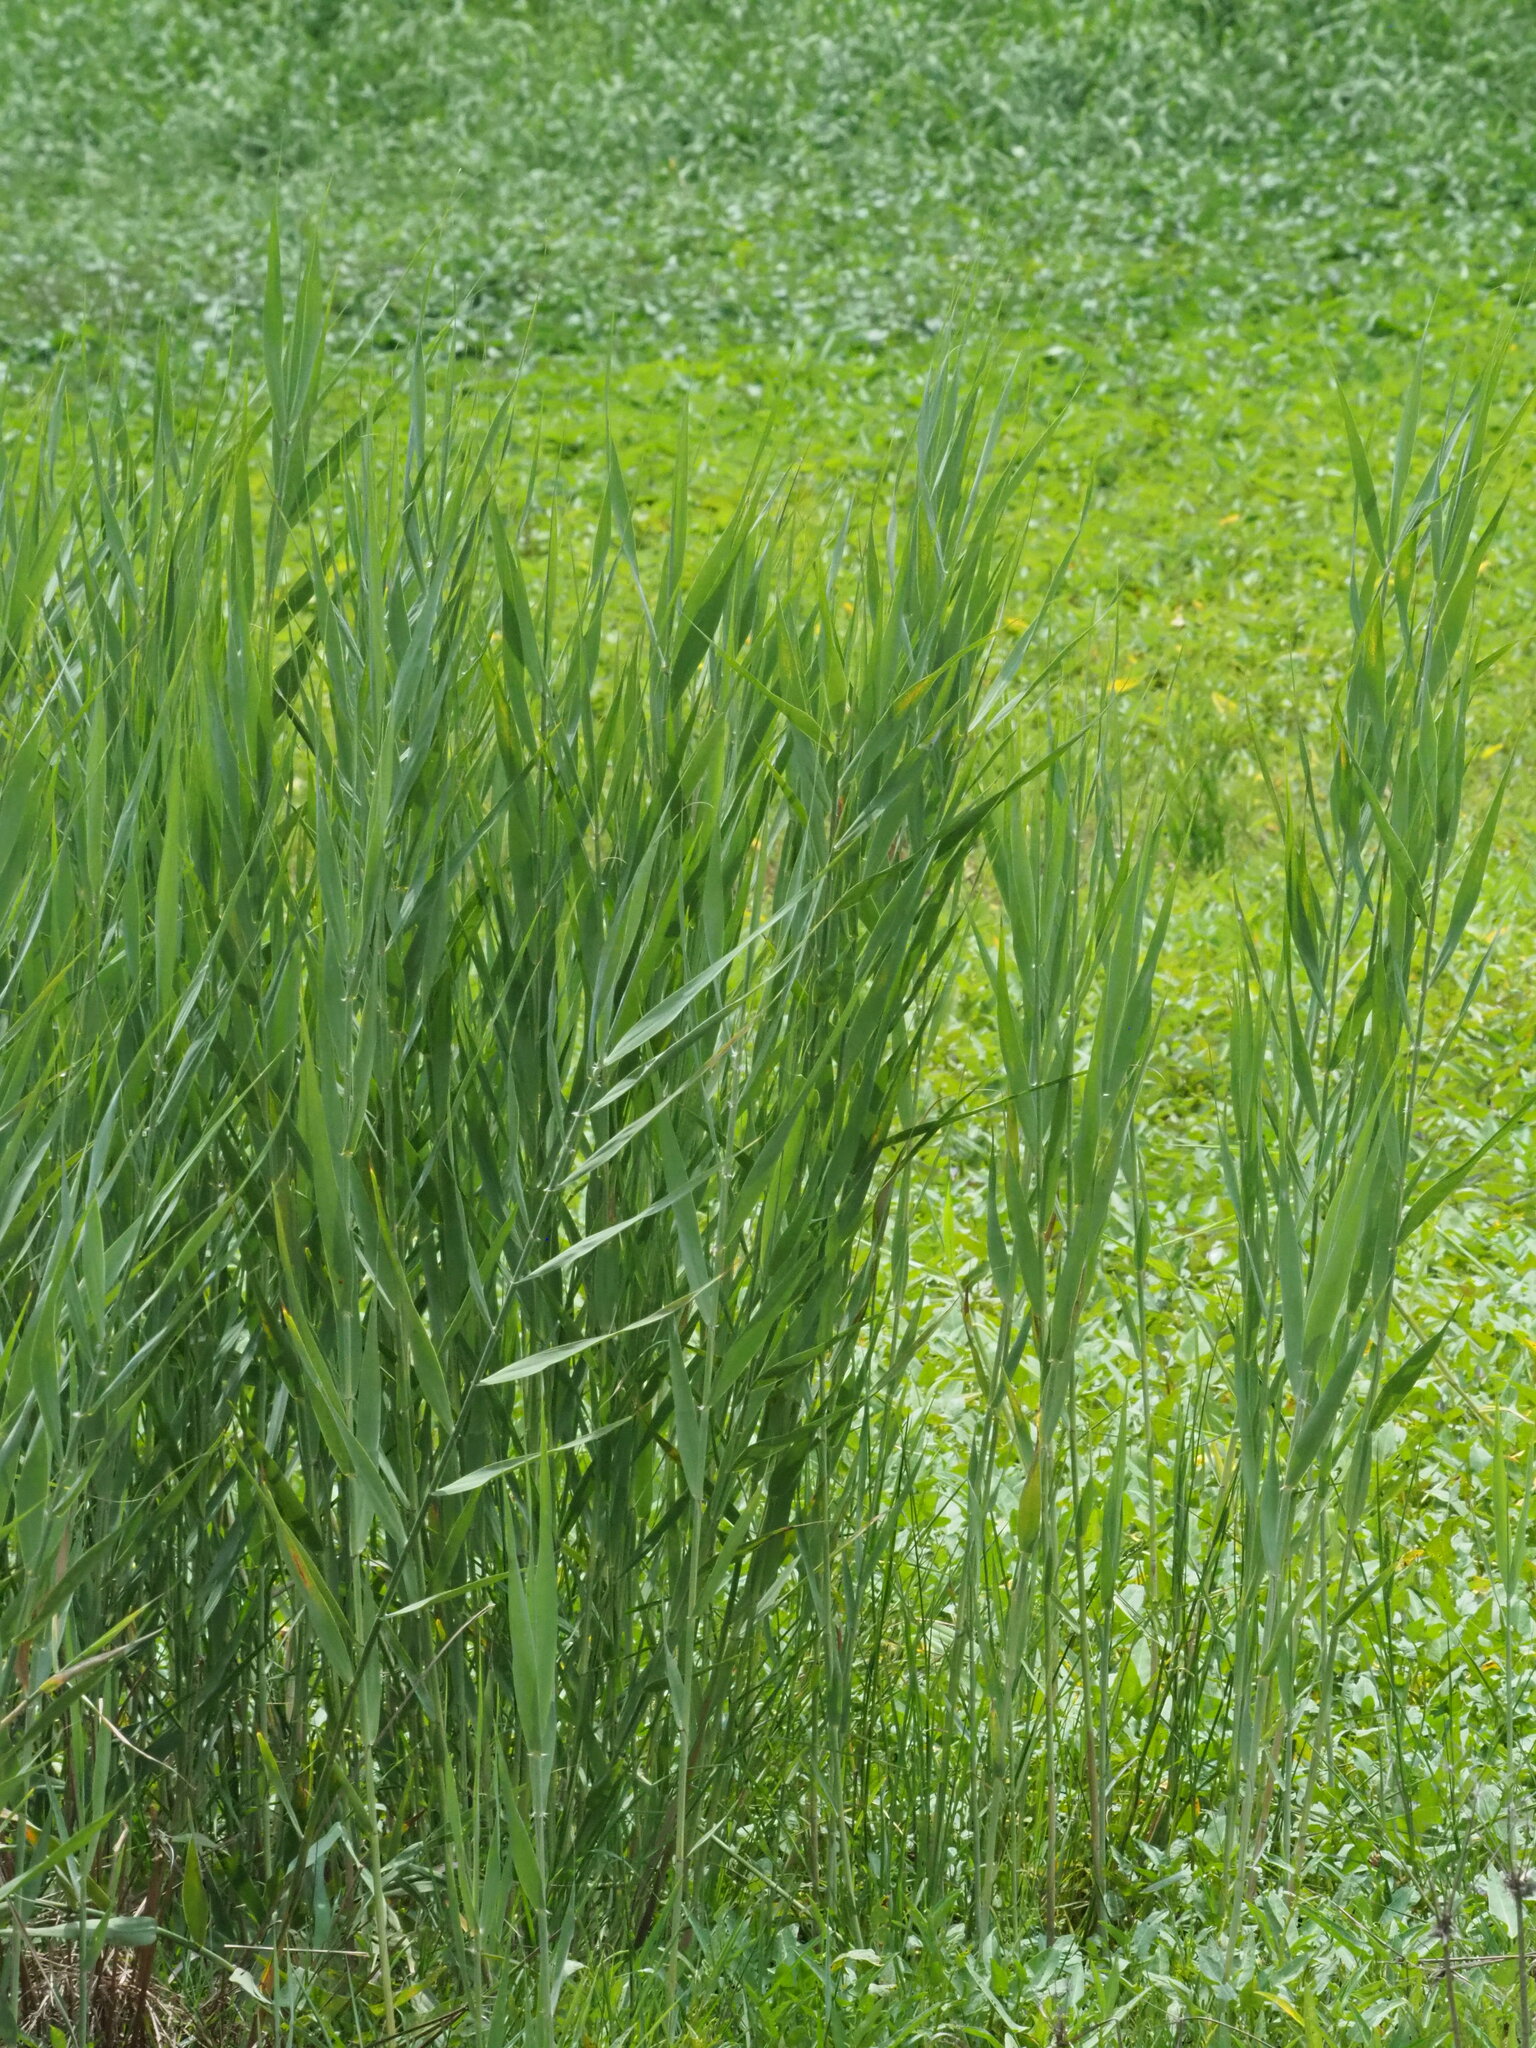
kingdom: Plantae
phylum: Tracheophyta
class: Liliopsida
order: Poales
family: Poaceae
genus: Phragmites
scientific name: Phragmites australis
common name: Common reed
